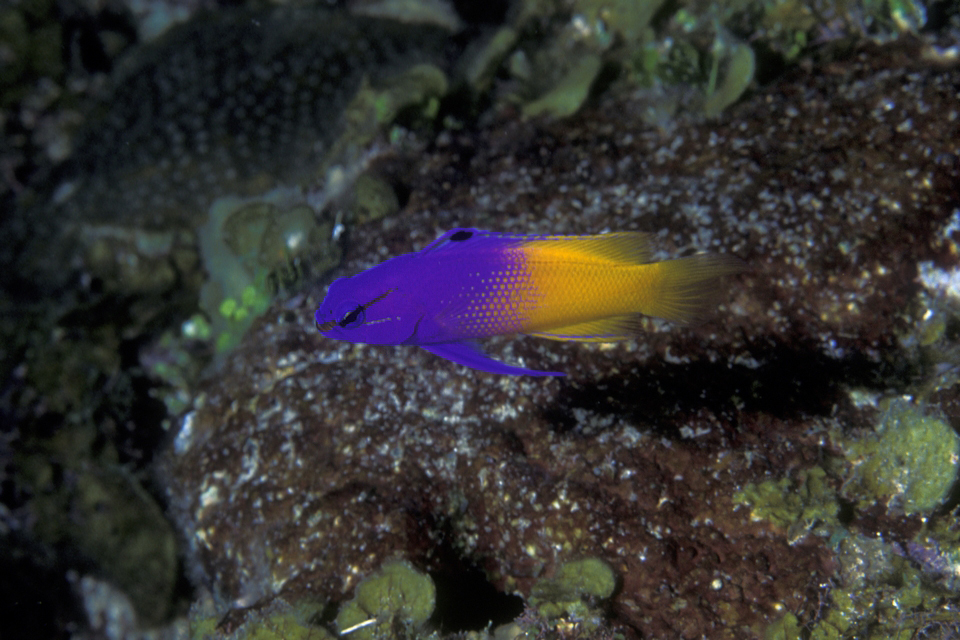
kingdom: Animalia
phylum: Chordata
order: Perciformes
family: Grammatidae
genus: Gramma
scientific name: Gramma loreto
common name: Fairy basslet
